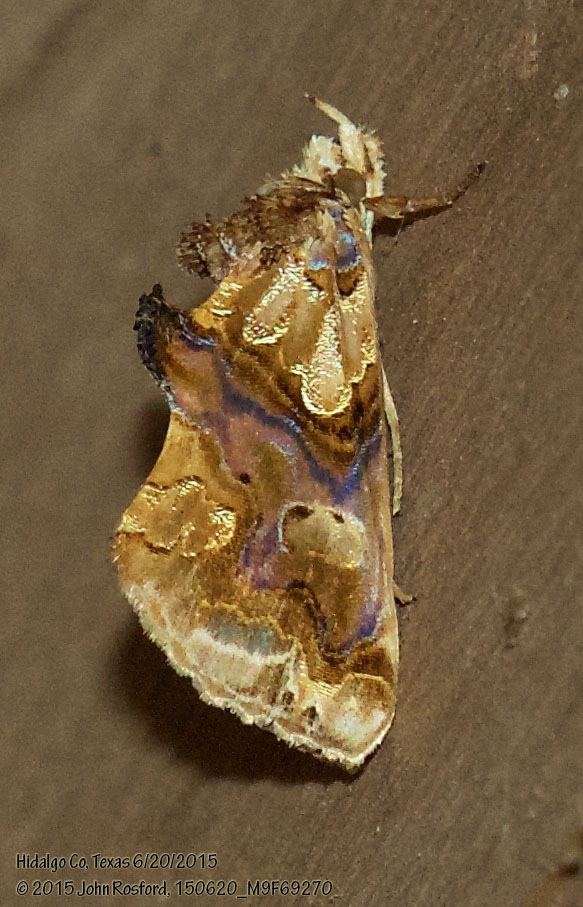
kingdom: Animalia
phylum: Arthropoda
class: Insecta
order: Lepidoptera
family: Erebidae
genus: Plusiodonta
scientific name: Plusiodonta compressipalpis
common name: Moonseed moth
